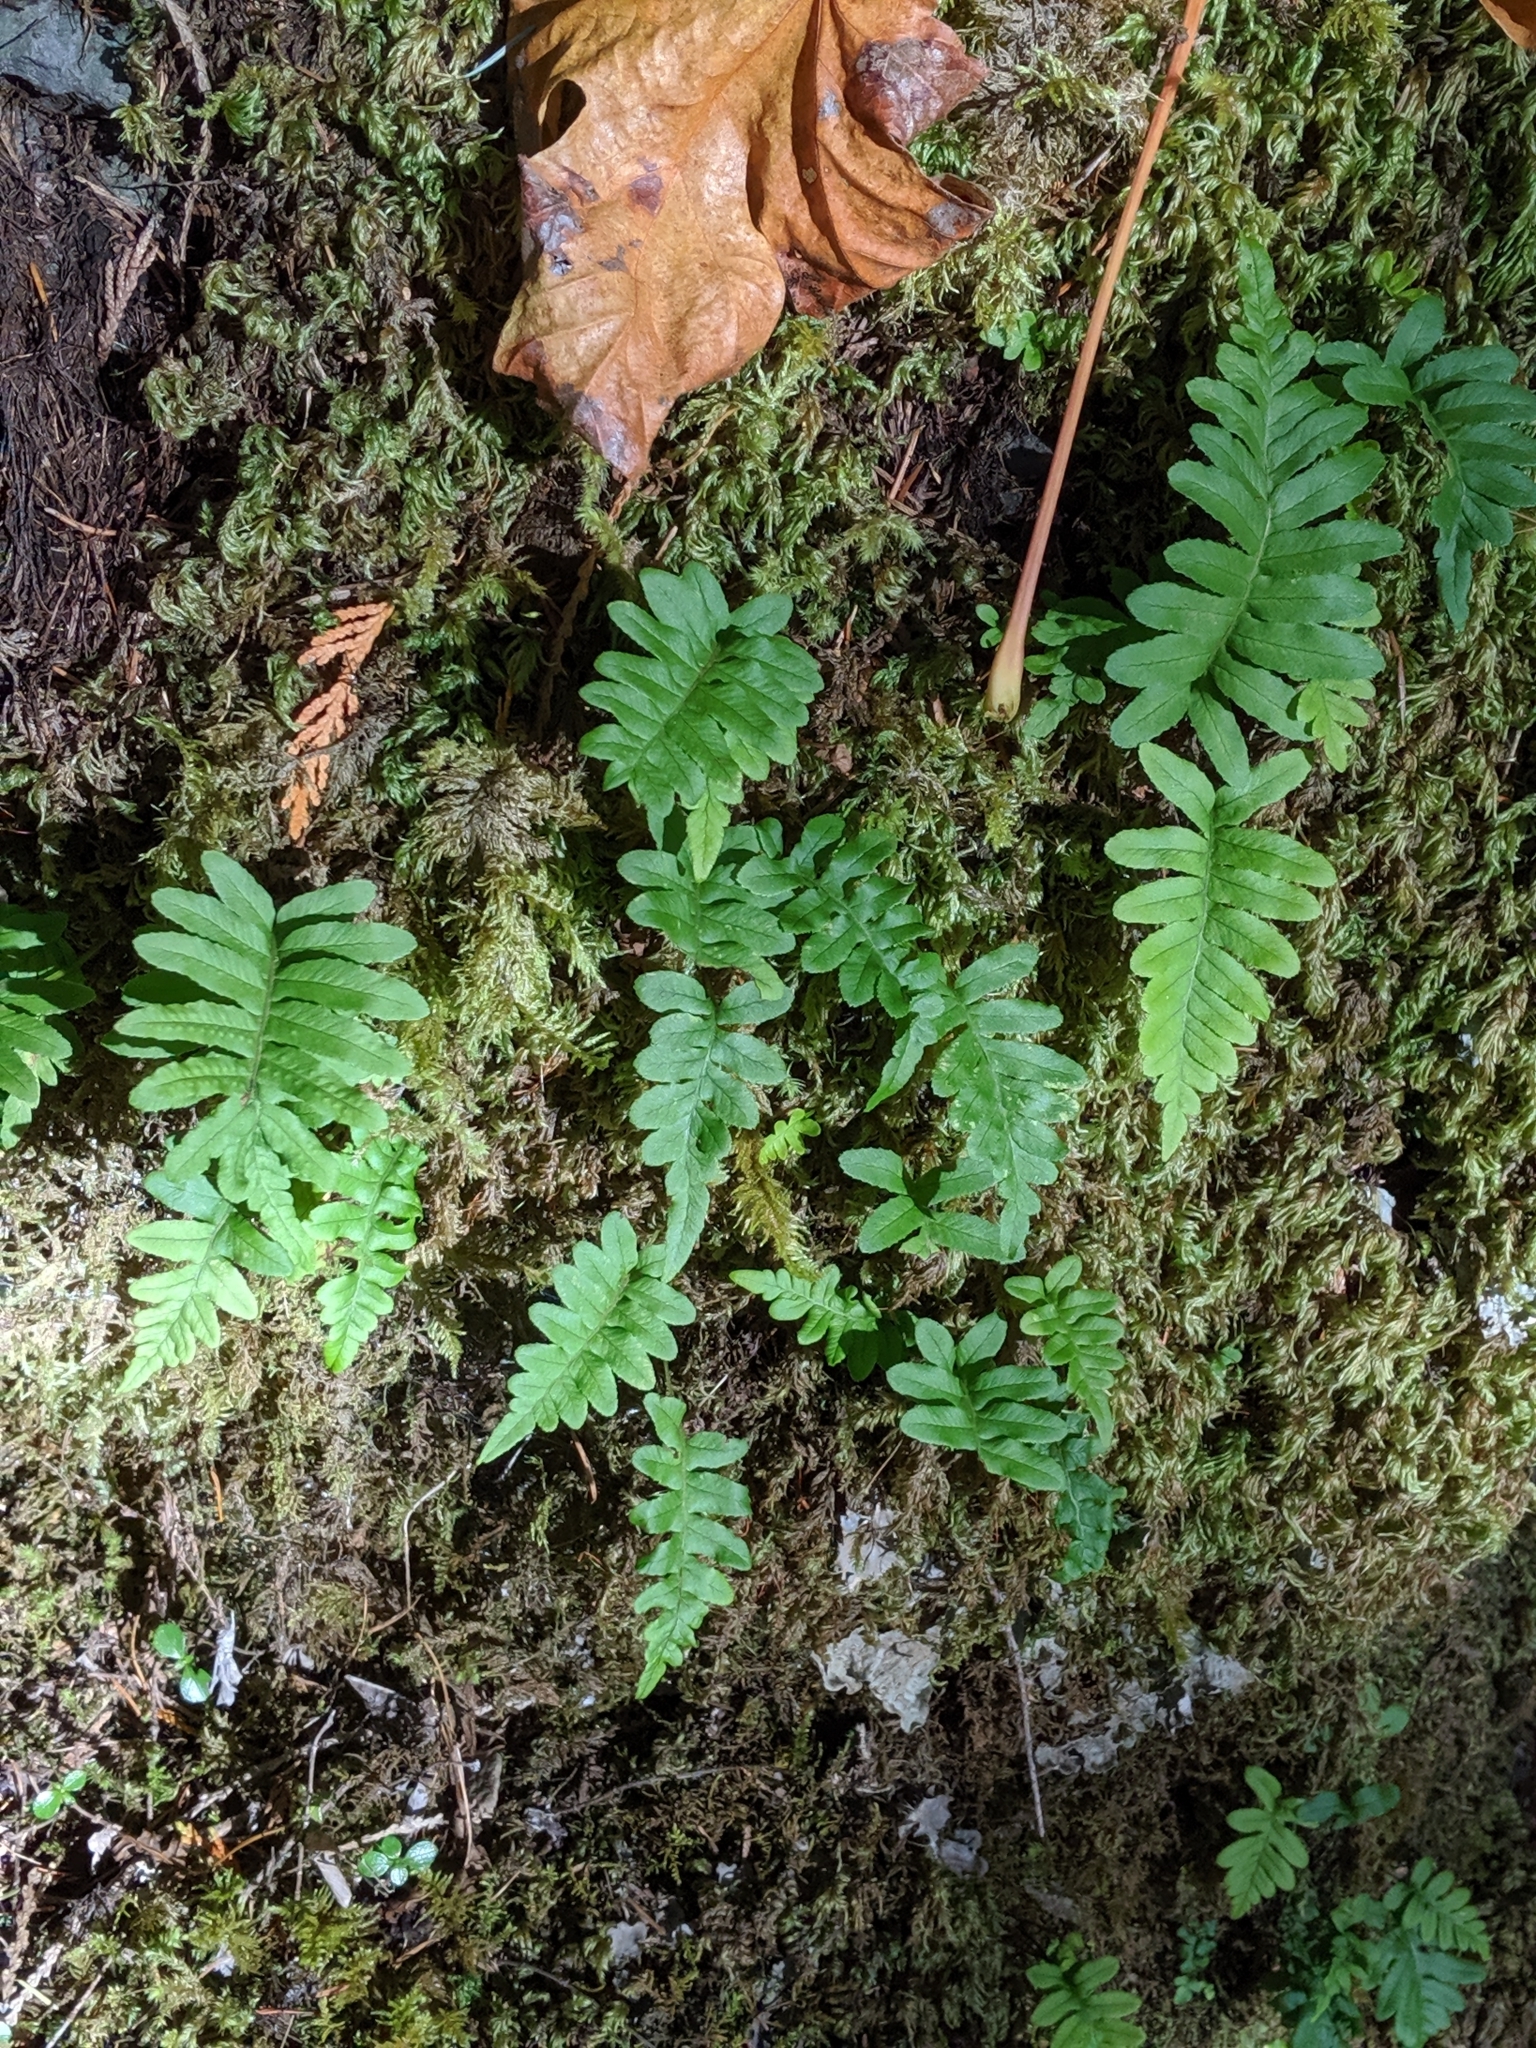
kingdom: Plantae
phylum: Tracheophyta
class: Polypodiopsida
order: Polypodiales
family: Polypodiaceae
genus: Polypodium
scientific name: Polypodium glycyrrhiza
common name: Licorice fern
